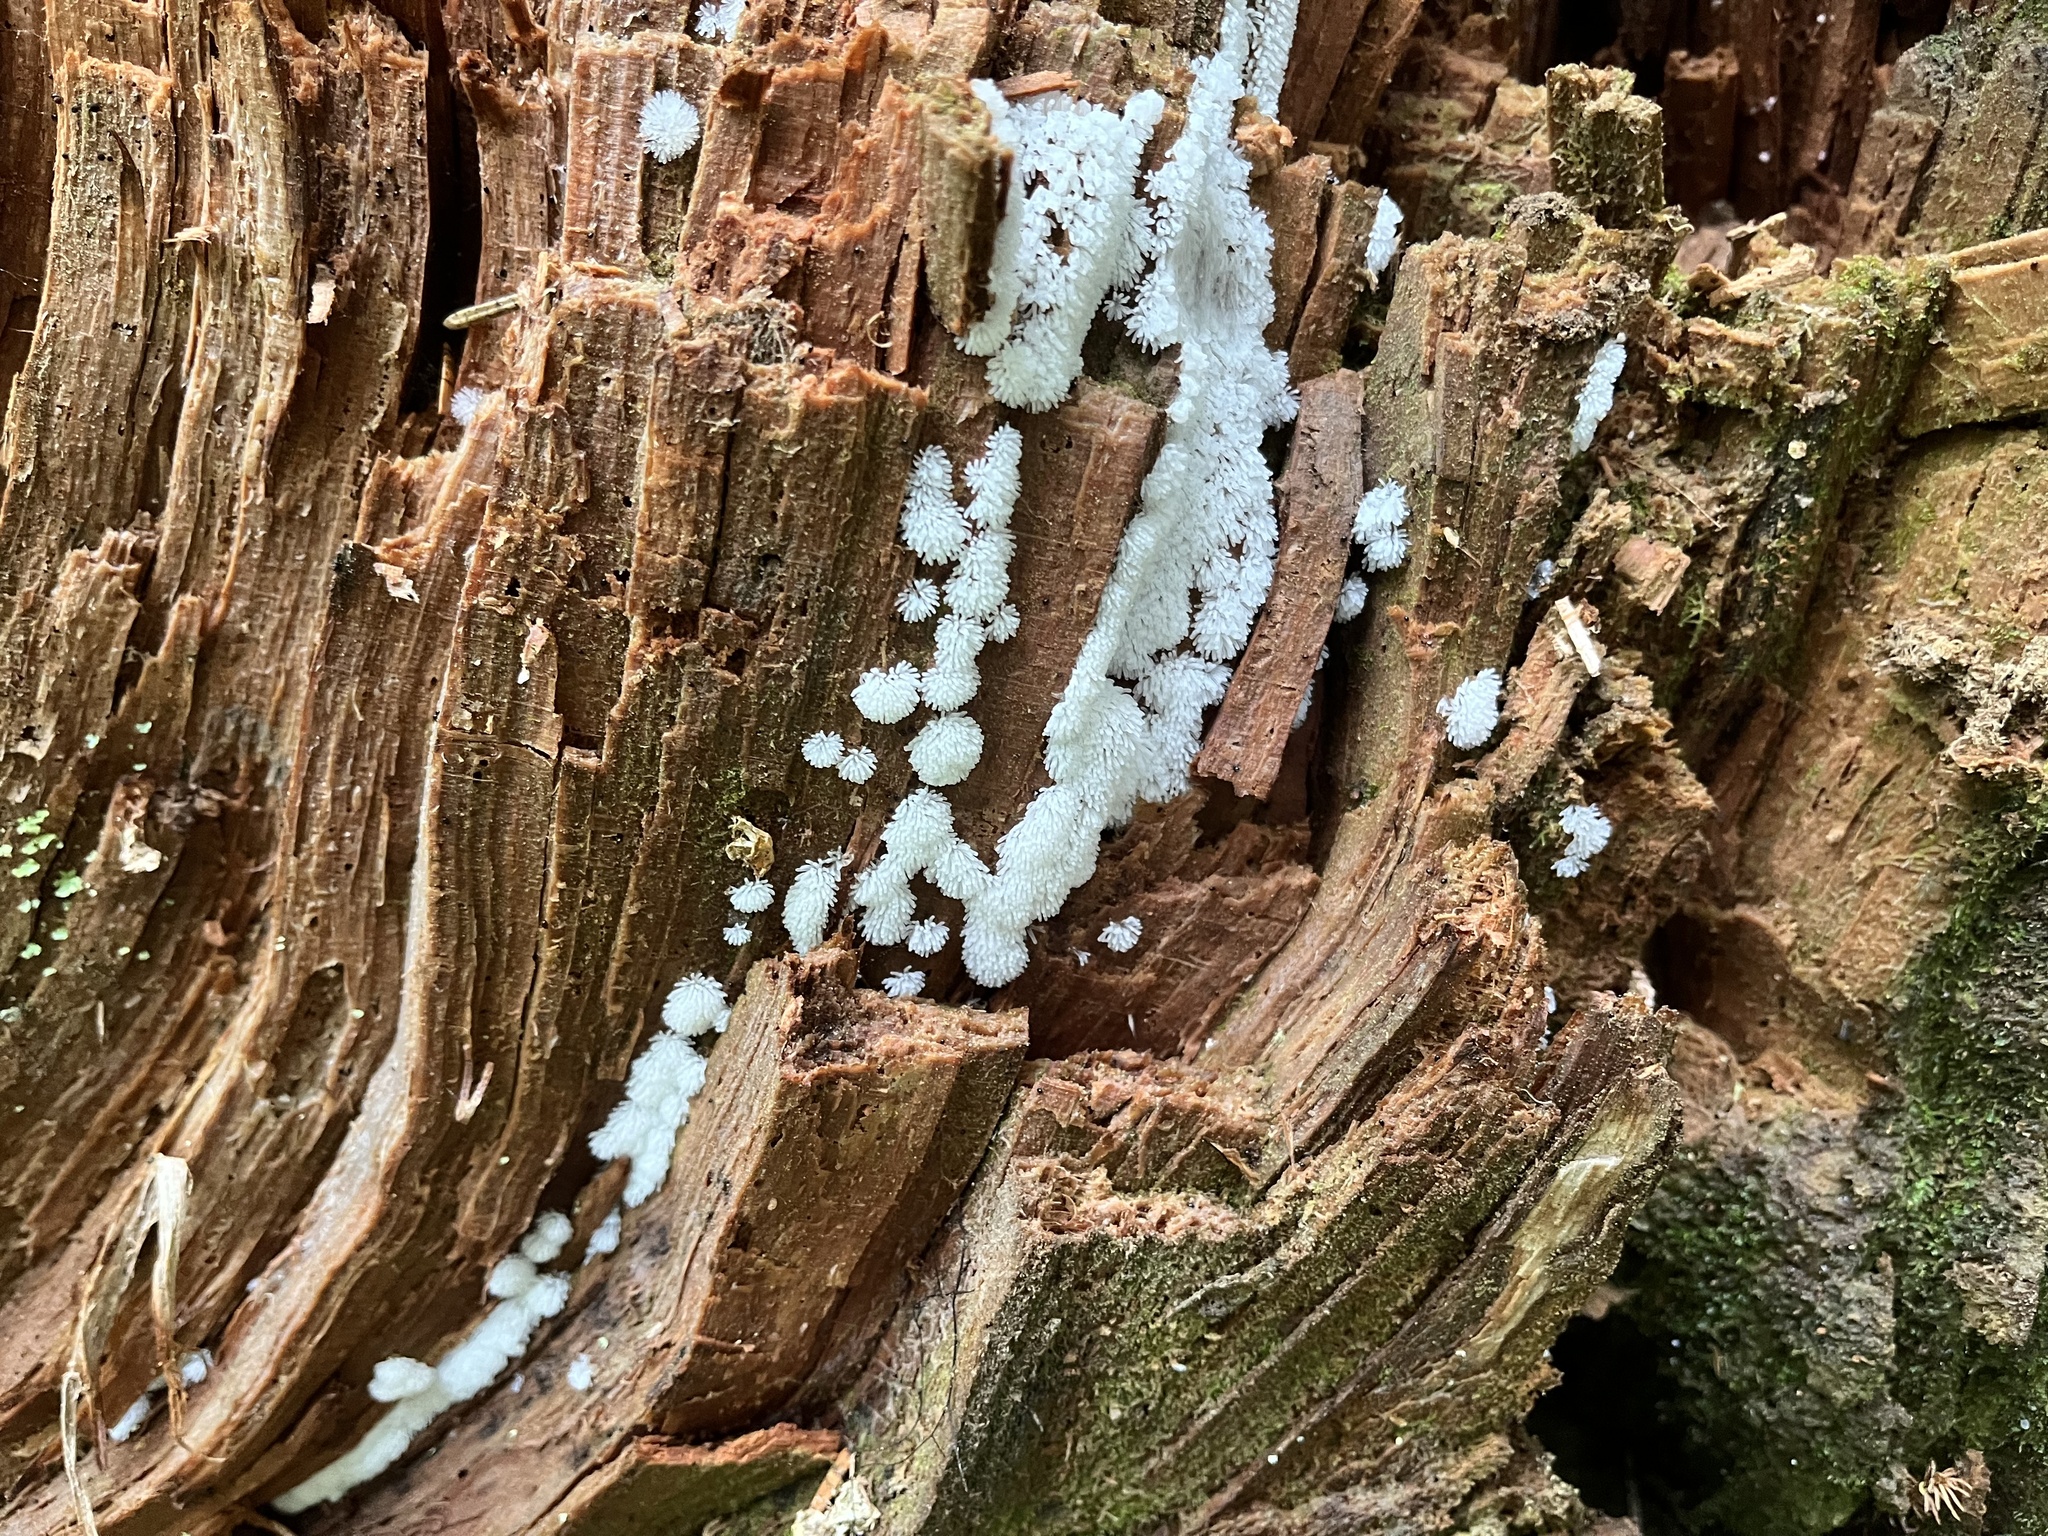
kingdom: Protozoa
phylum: Mycetozoa
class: Protosteliomycetes
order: Ceratiomyxales
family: Ceratiomyxaceae
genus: Ceratiomyxa
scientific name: Ceratiomyxa fruticulosa
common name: Honeycomb coral slime mold
